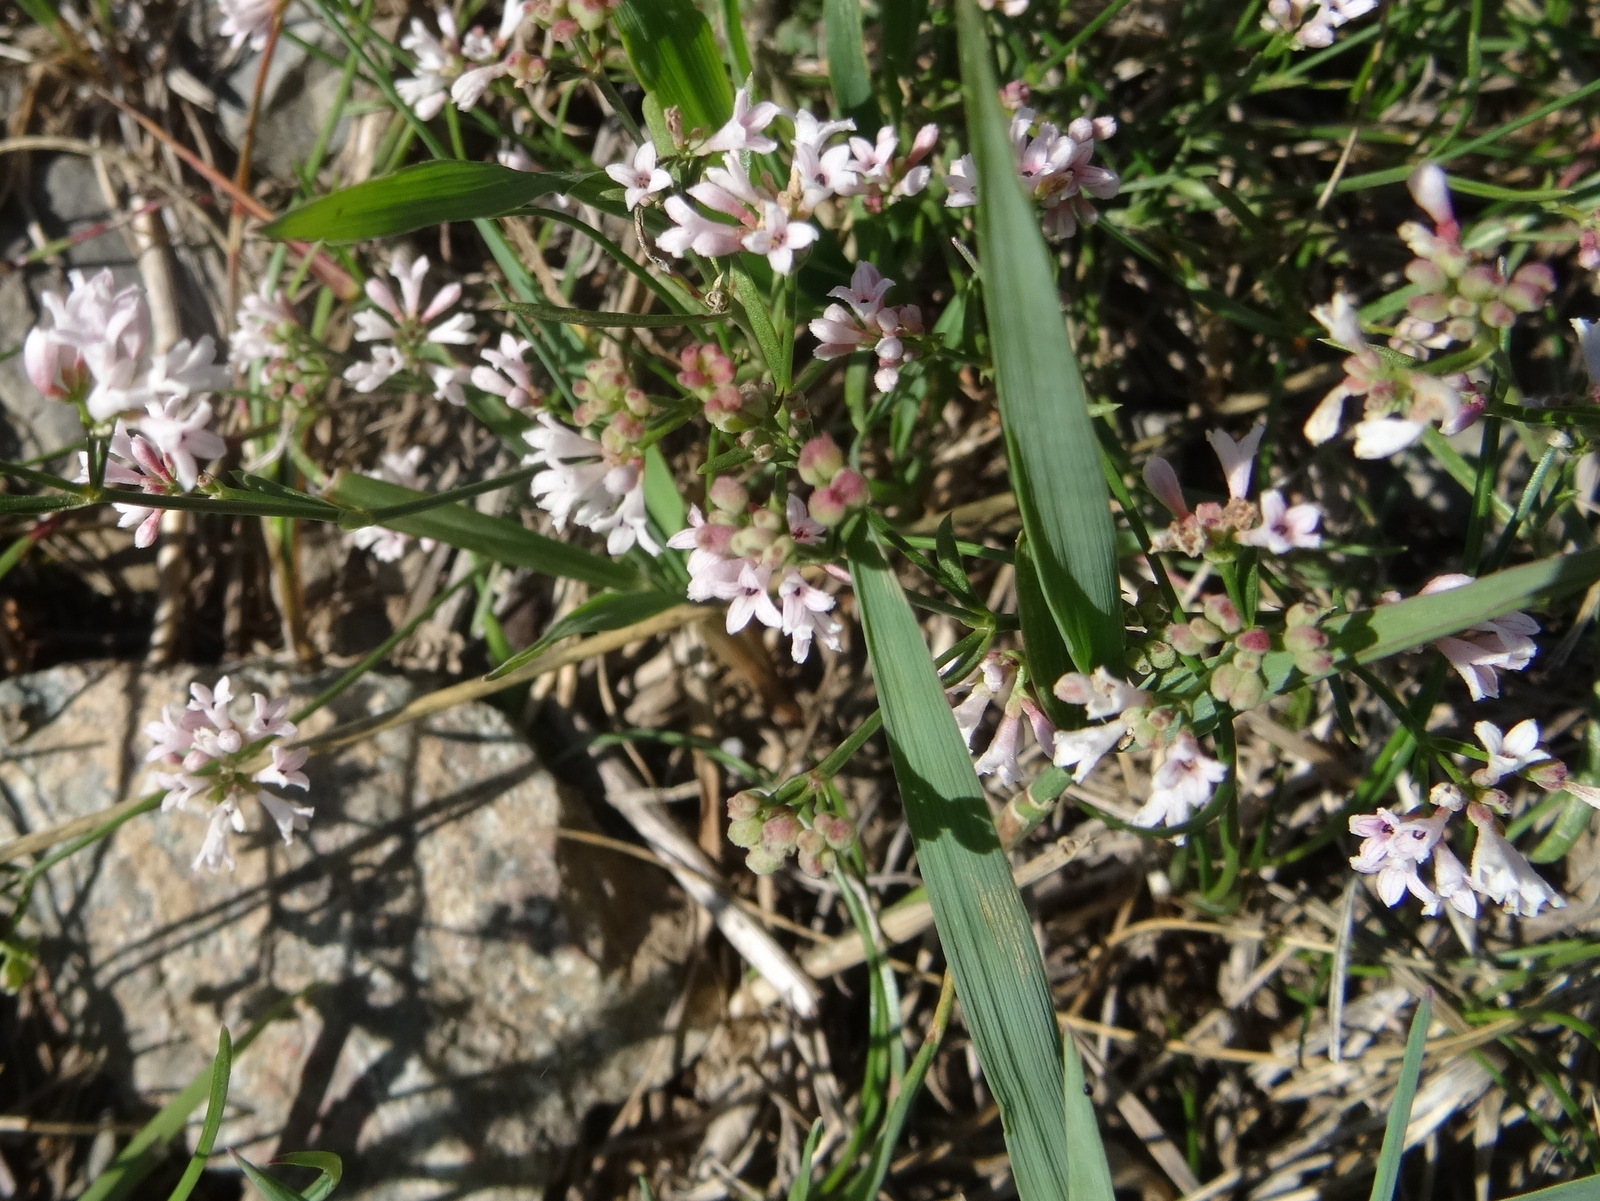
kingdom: Plantae
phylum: Tracheophyta
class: Magnoliopsida
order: Gentianales
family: Rubiaceae
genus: Cynanchica
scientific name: Cynanchica pyrenaica
